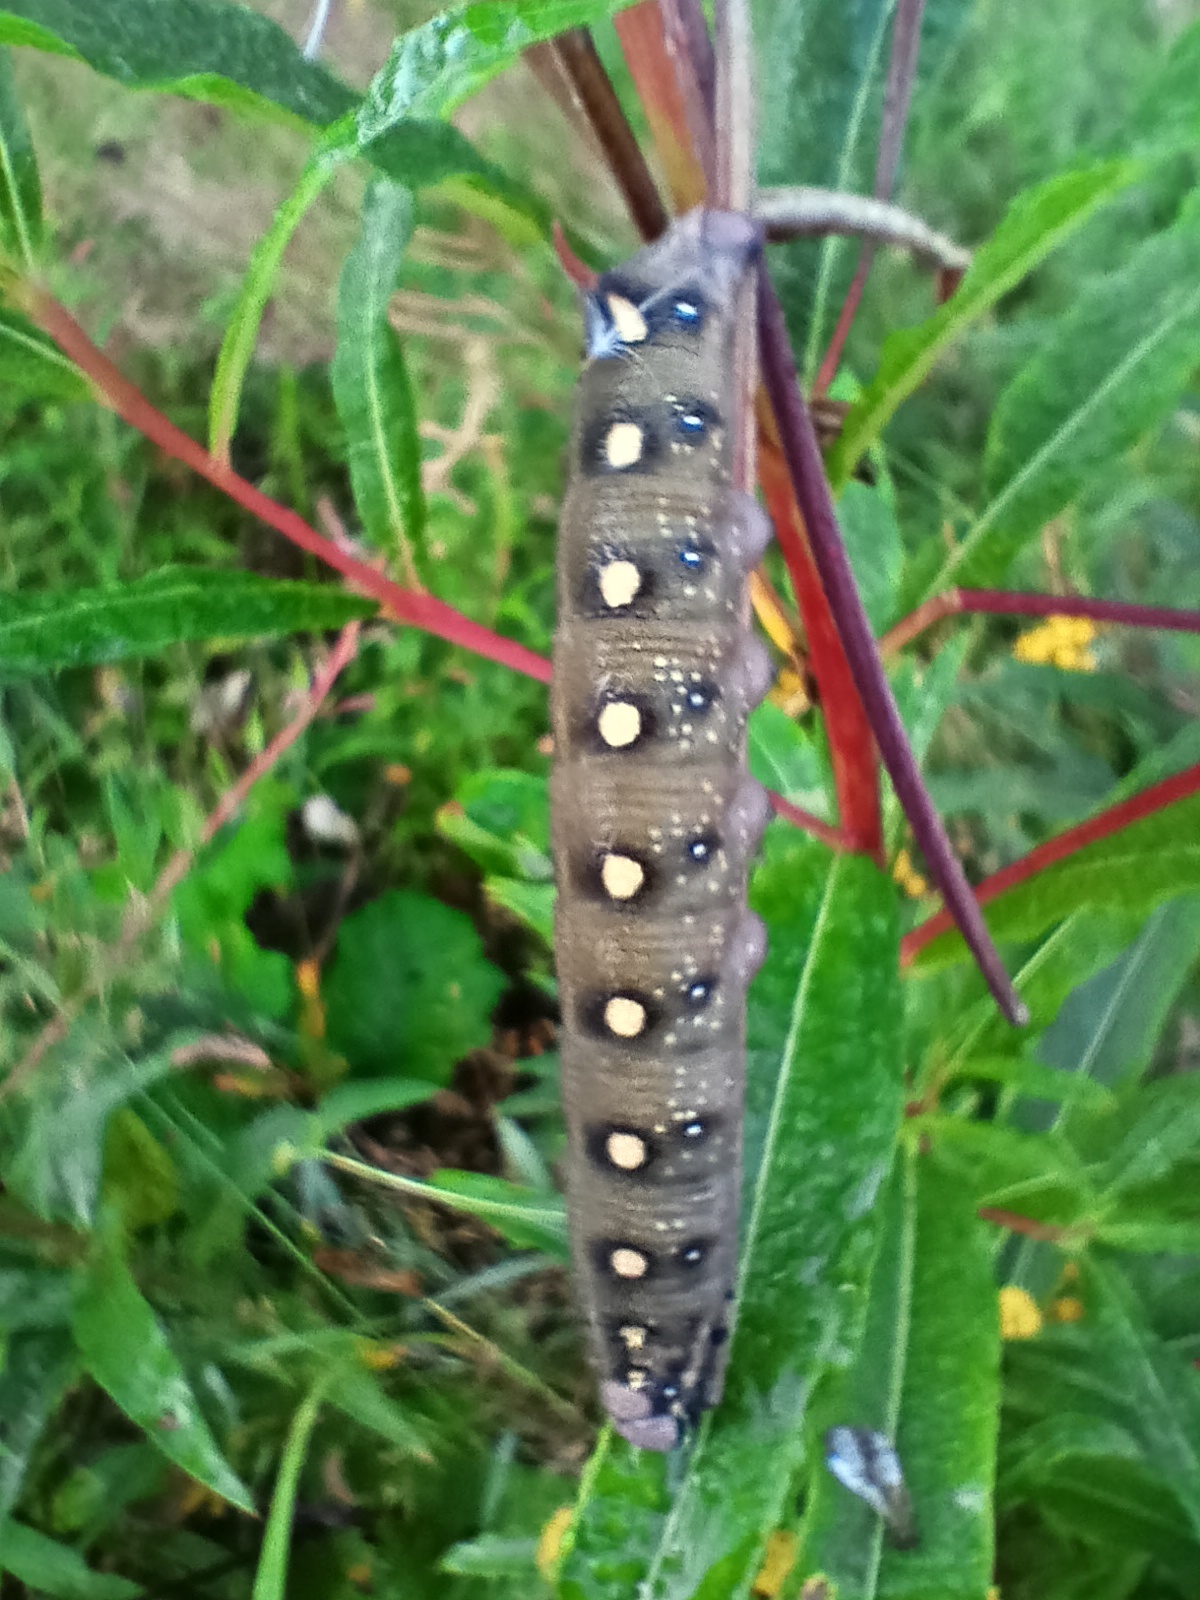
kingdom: Animalia
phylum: Arthropoda
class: Insecta
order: Lepidoptera
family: Sphingidae
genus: Hyles
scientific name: Hyles gallii
